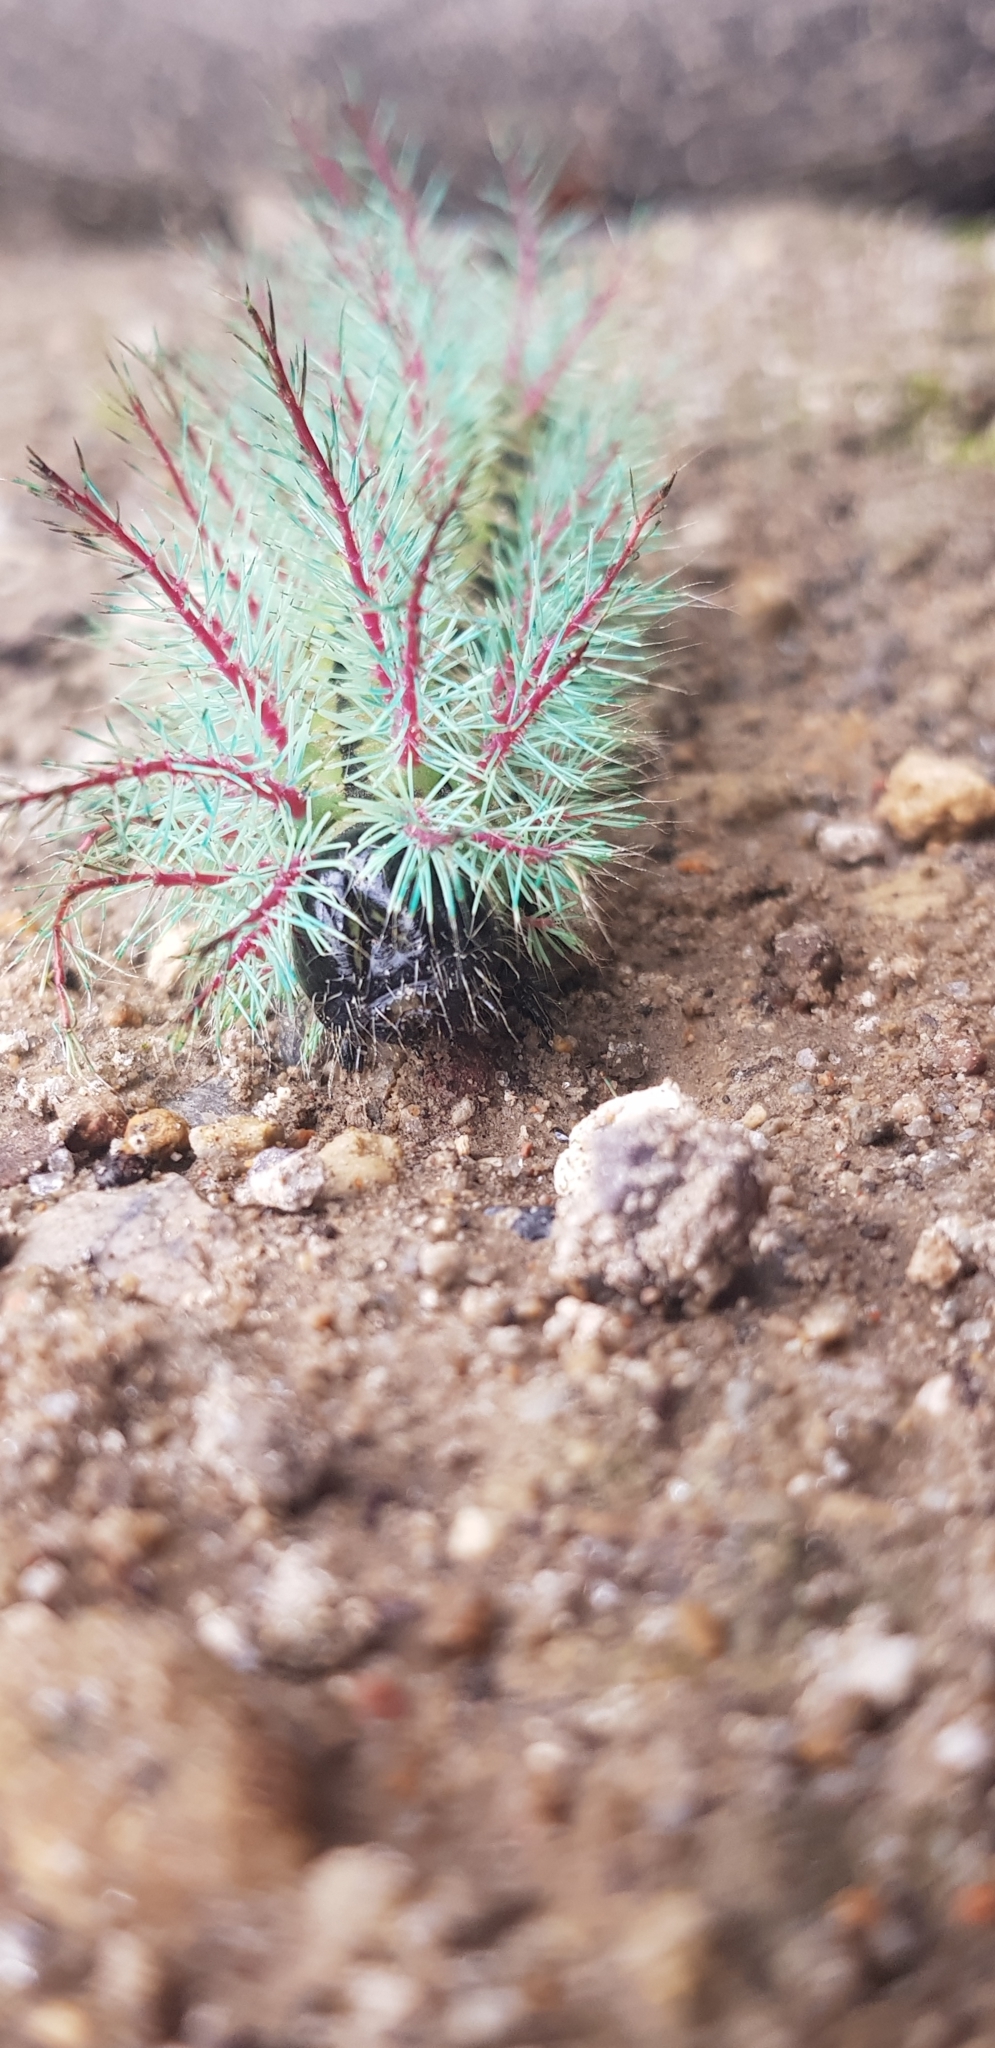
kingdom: Animalia
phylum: Arthropoda
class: Insecta
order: Lepidoptera
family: Saturniidae
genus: Automeris
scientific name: Automeris metzli
